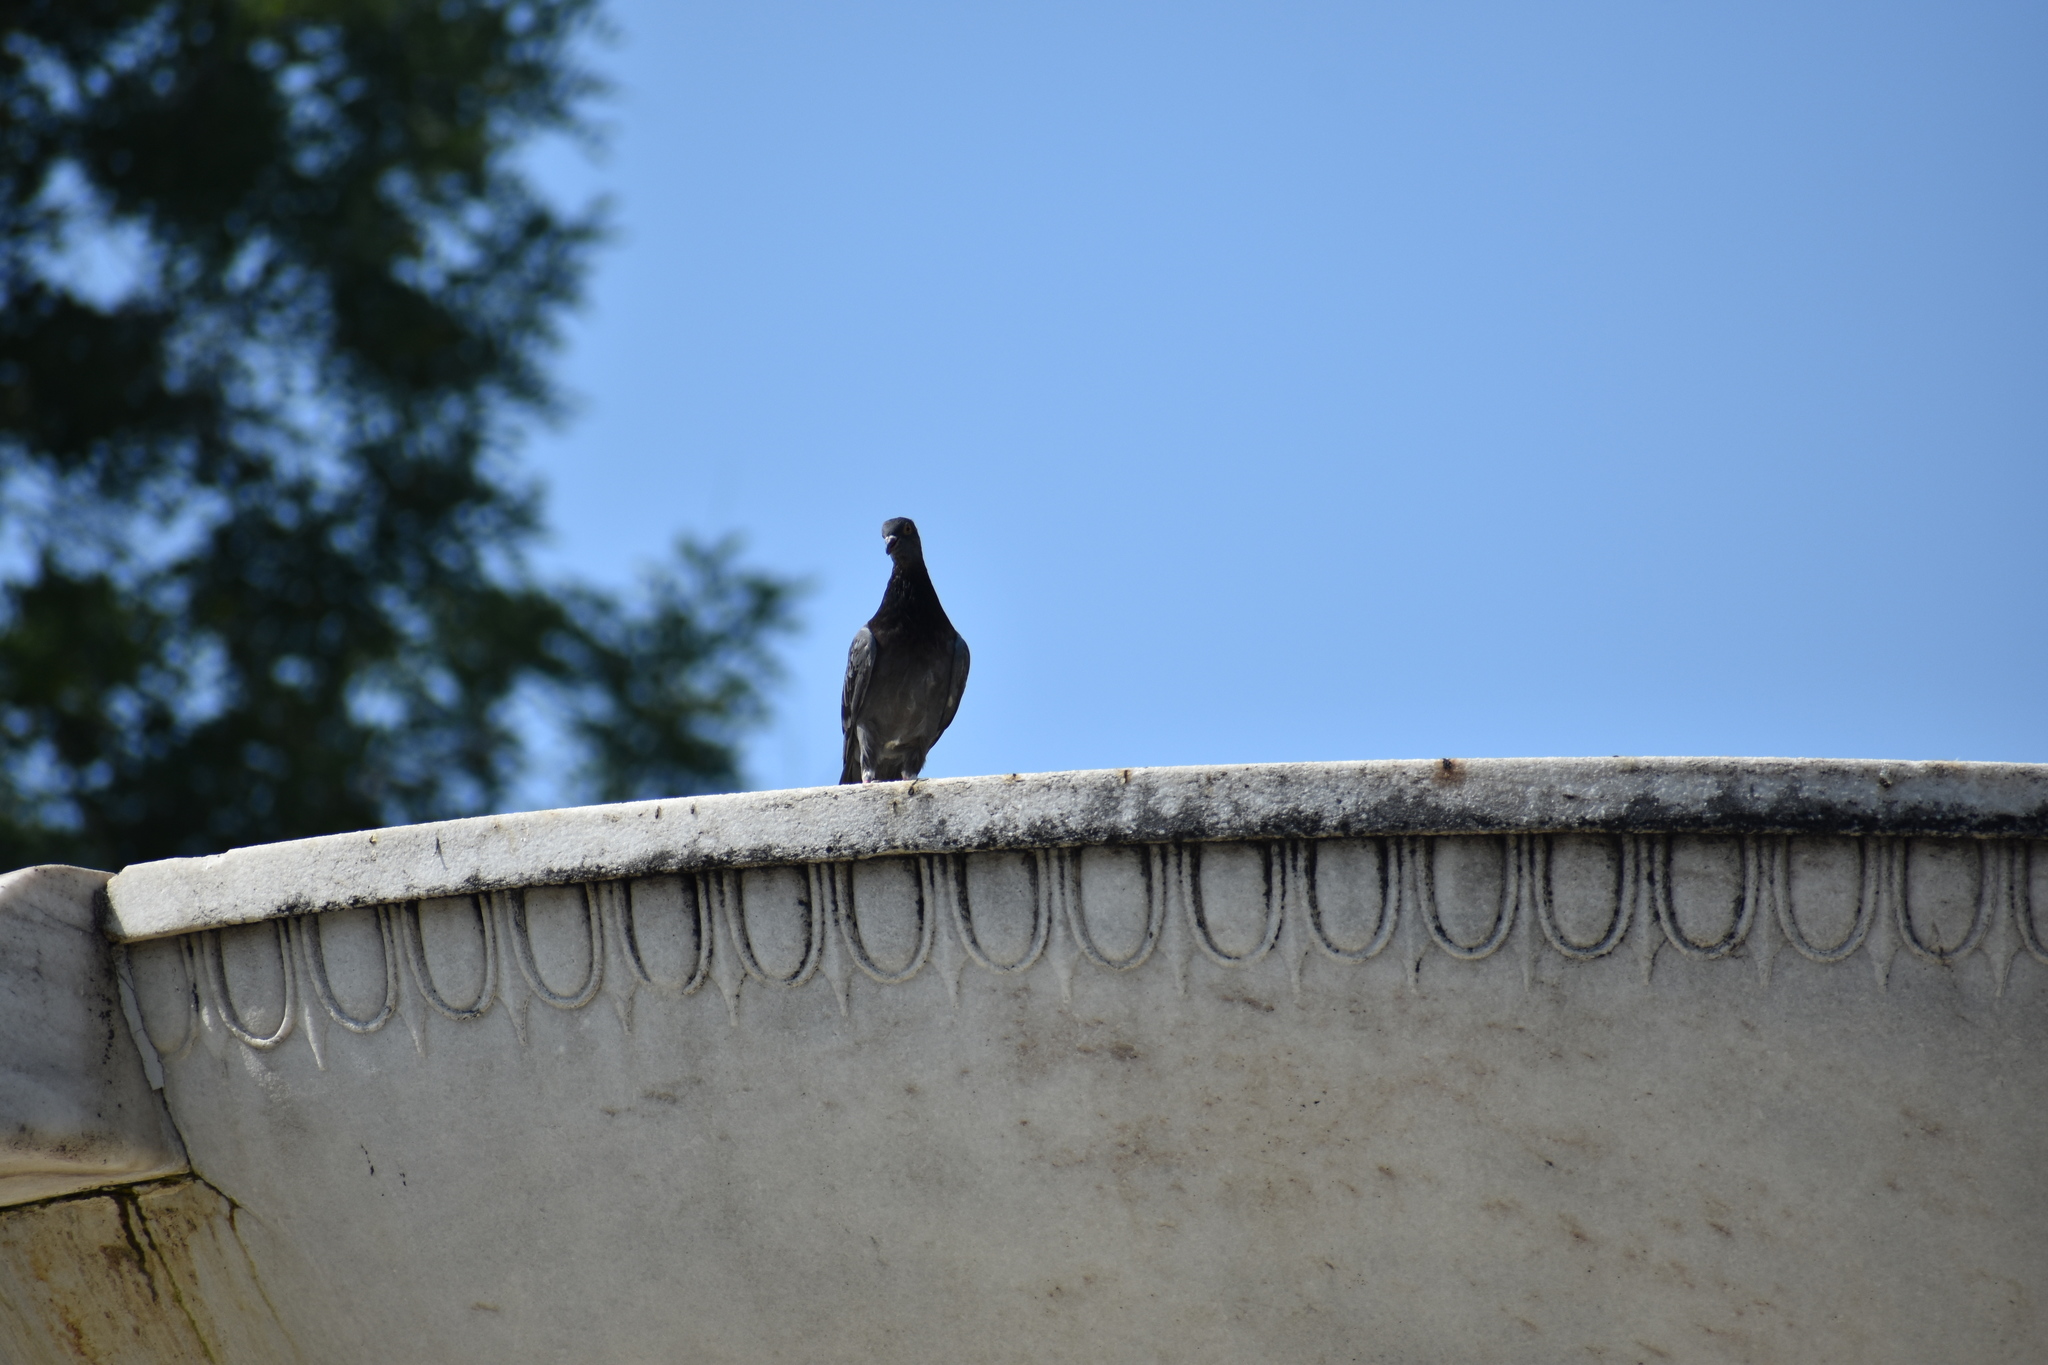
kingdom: Animalia
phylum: Chordata
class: Aves
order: Columbiformes
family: Columbidae
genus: Columba
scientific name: Columba livia
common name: Rock pigeon
